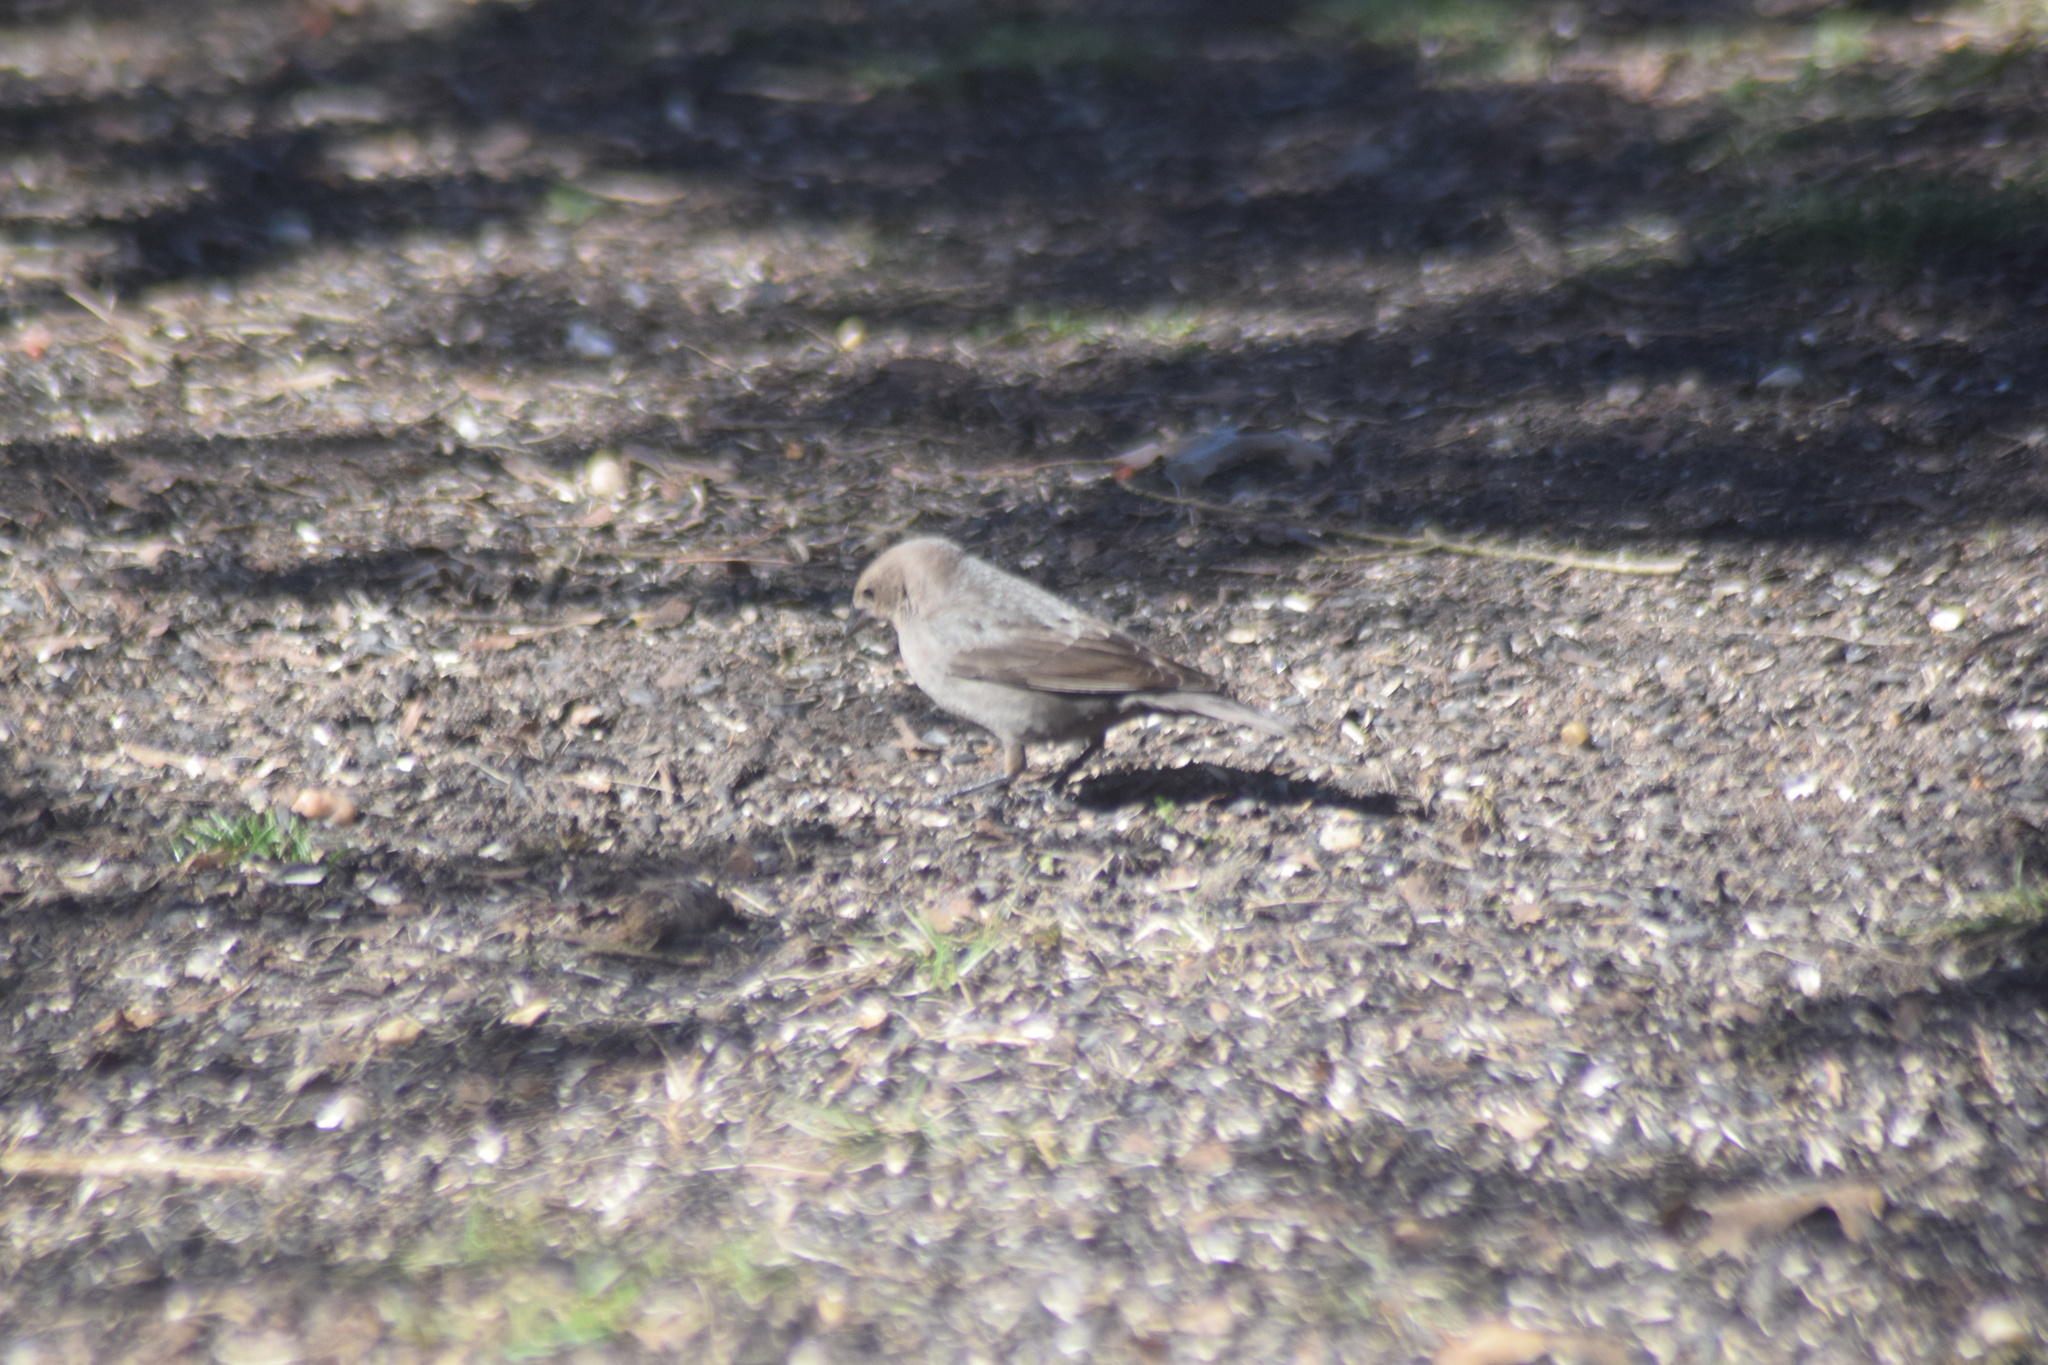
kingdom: Animalia
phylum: Chordata
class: Aves
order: Passeriformes
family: Icteridae
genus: Molothrus
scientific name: Molothrus ater
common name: Brown-headed cowbird
